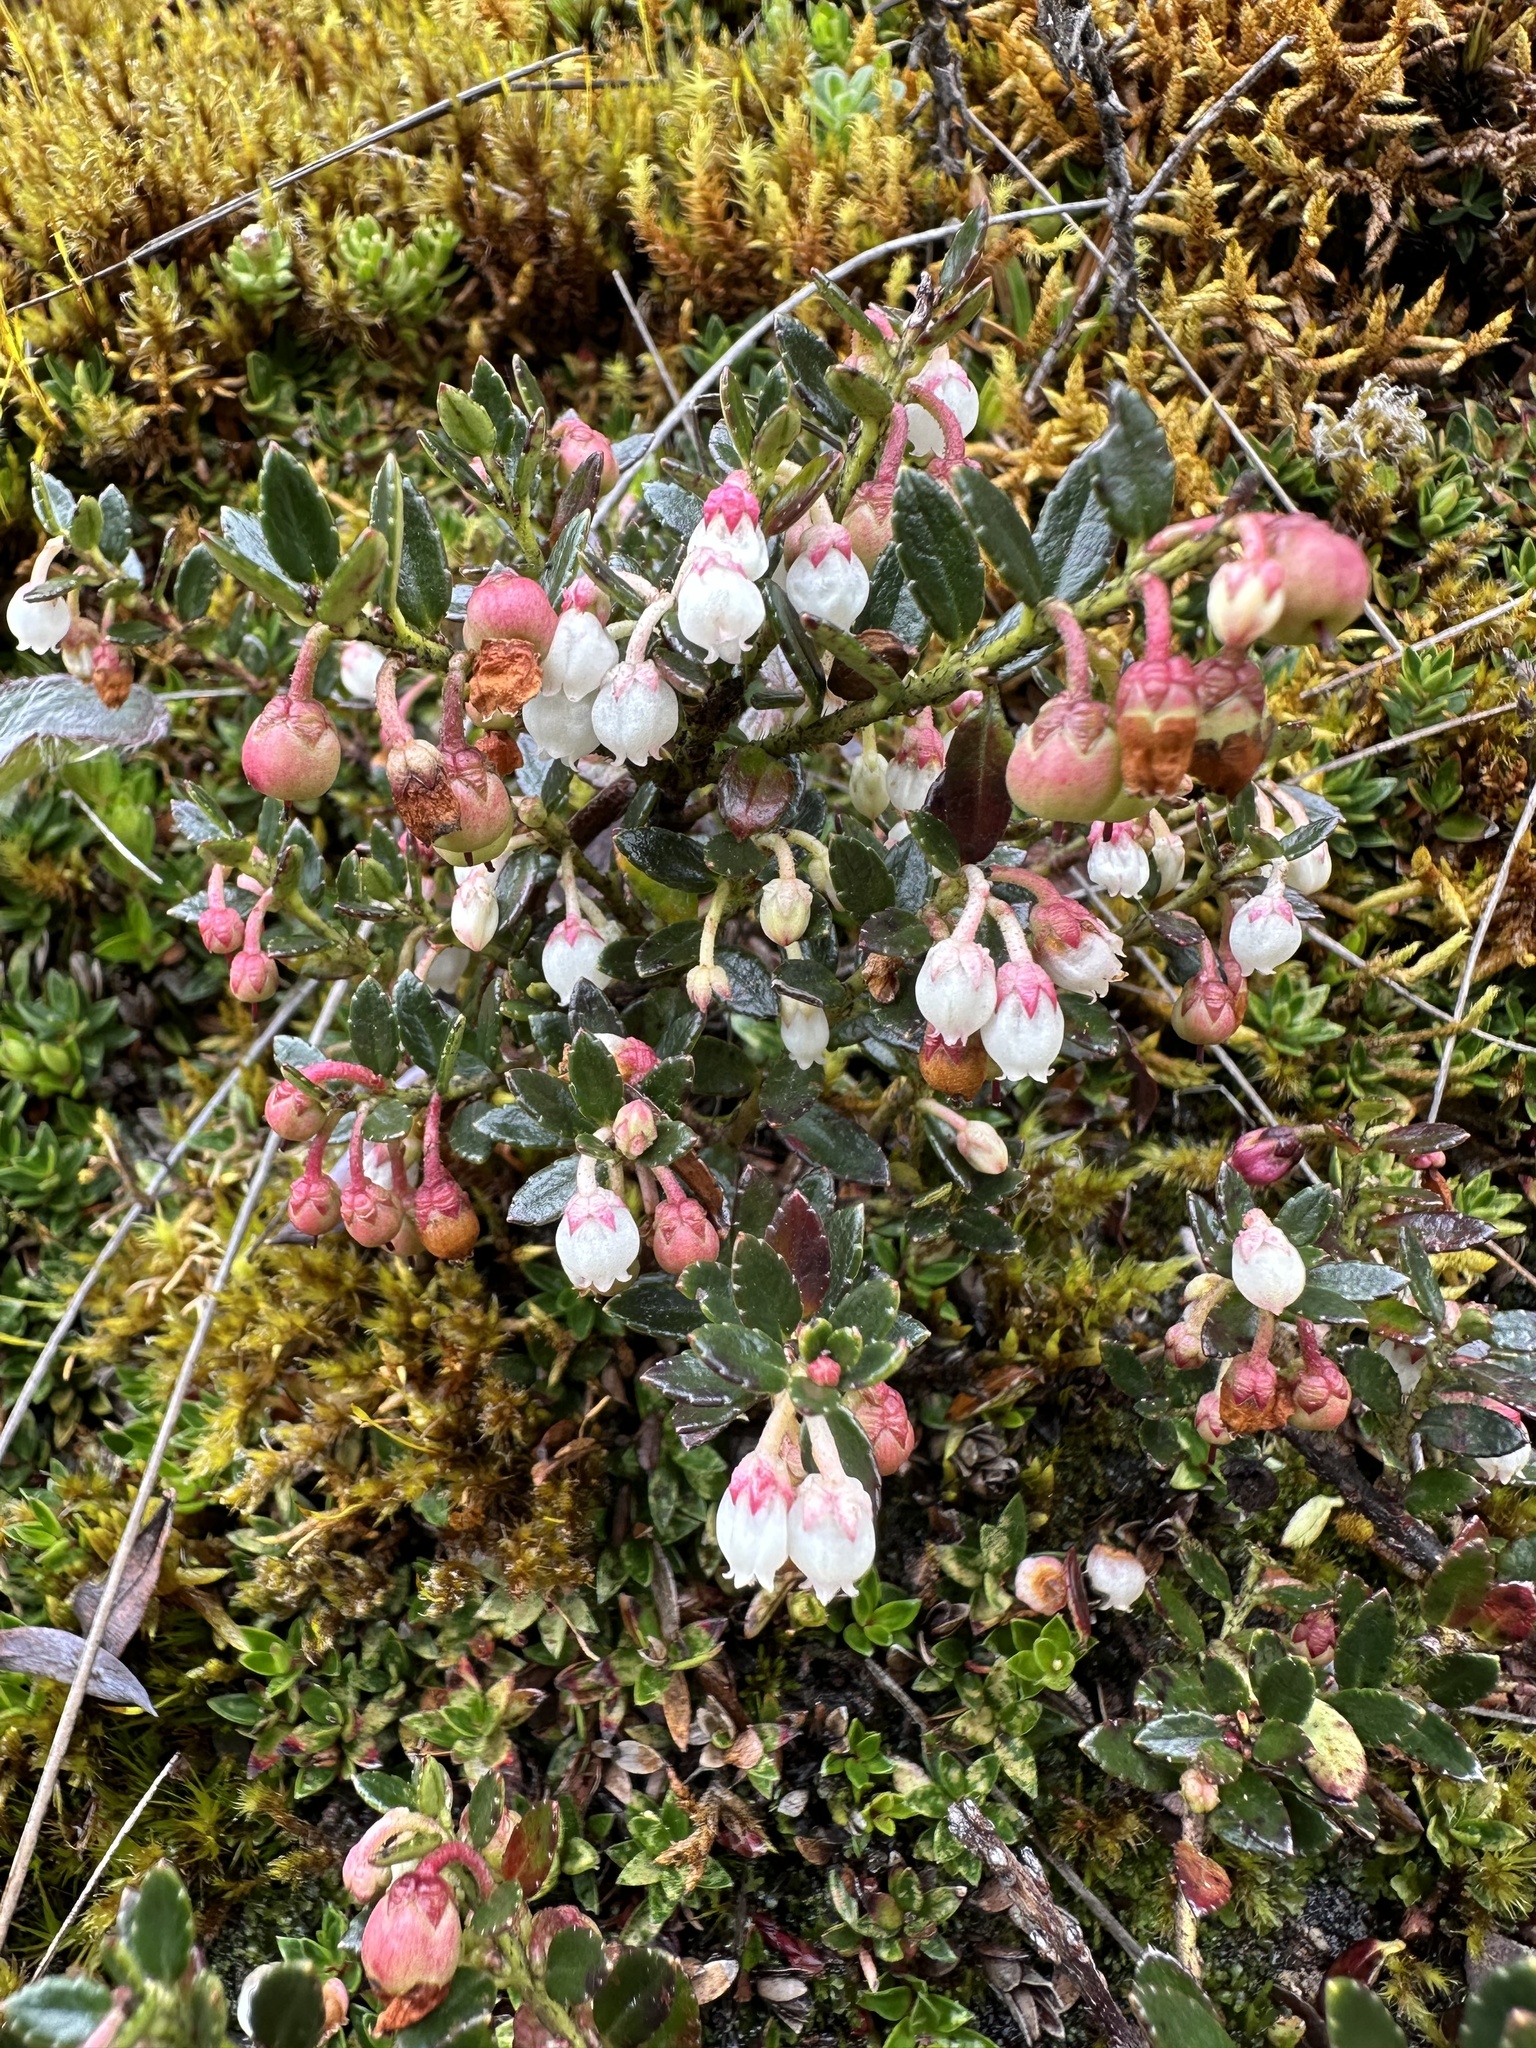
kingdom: Plantae
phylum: Tracheophyta
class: Magnoliopsida
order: Ericales
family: Ericaceae
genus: Gaultheria
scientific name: Gaultheria myrsinoides
